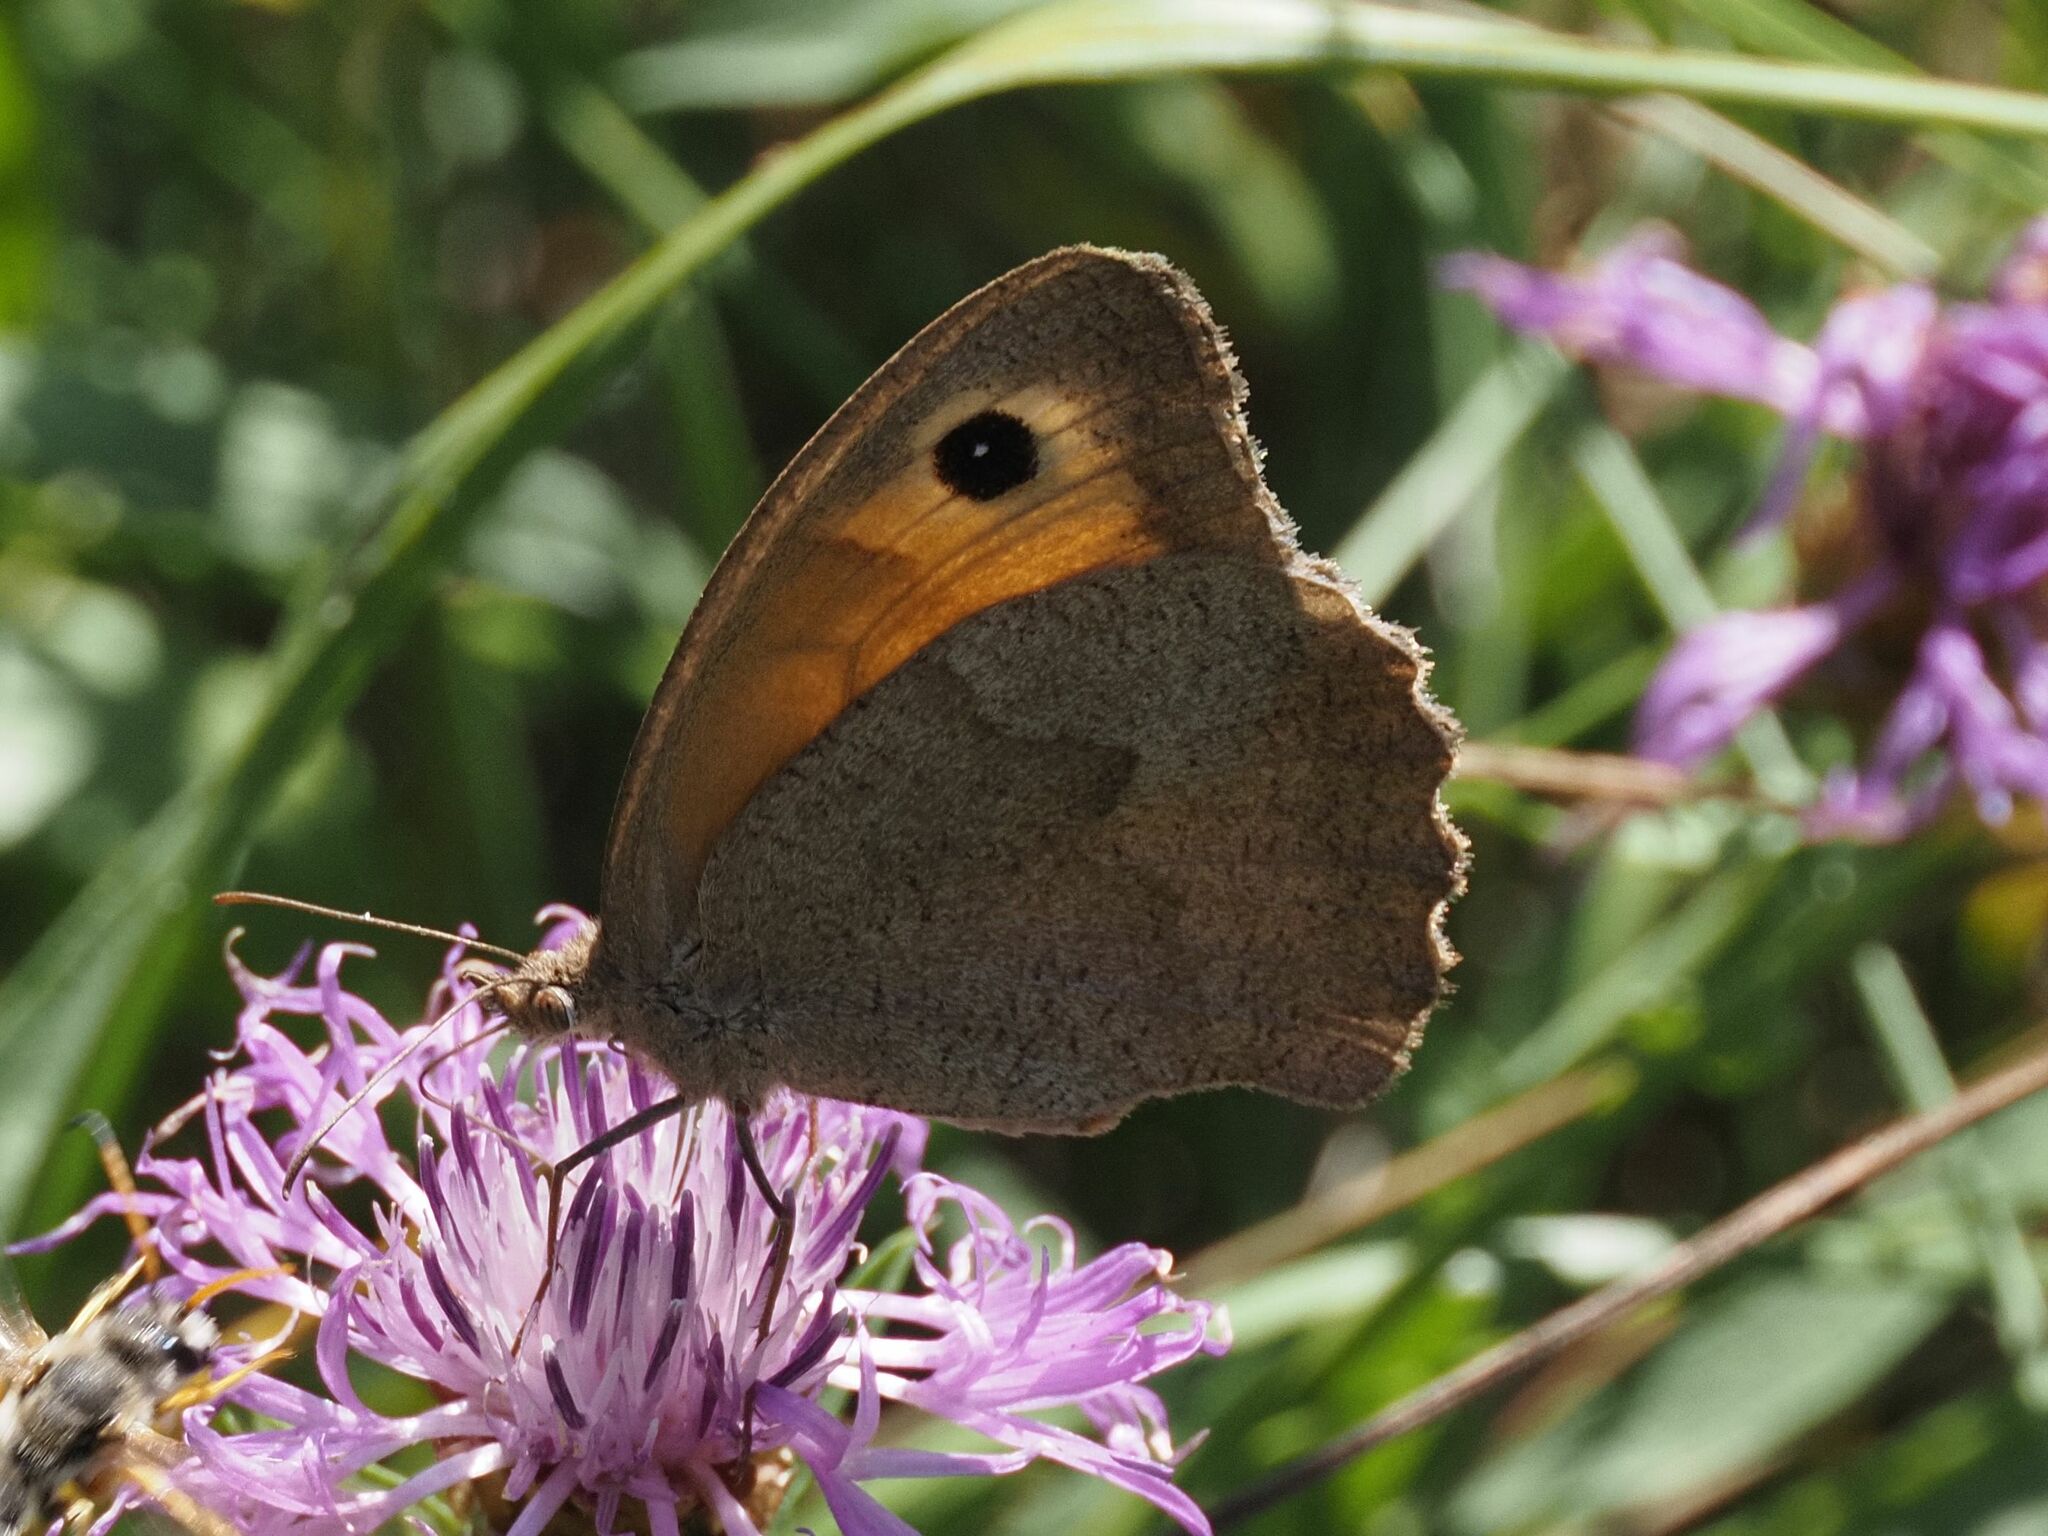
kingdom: Animalia
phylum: Arthropoda
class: Insecta
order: Lepidoptera
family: Nymphalidae
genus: Maniola
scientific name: Maniola jurtina
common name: Meadow brown
